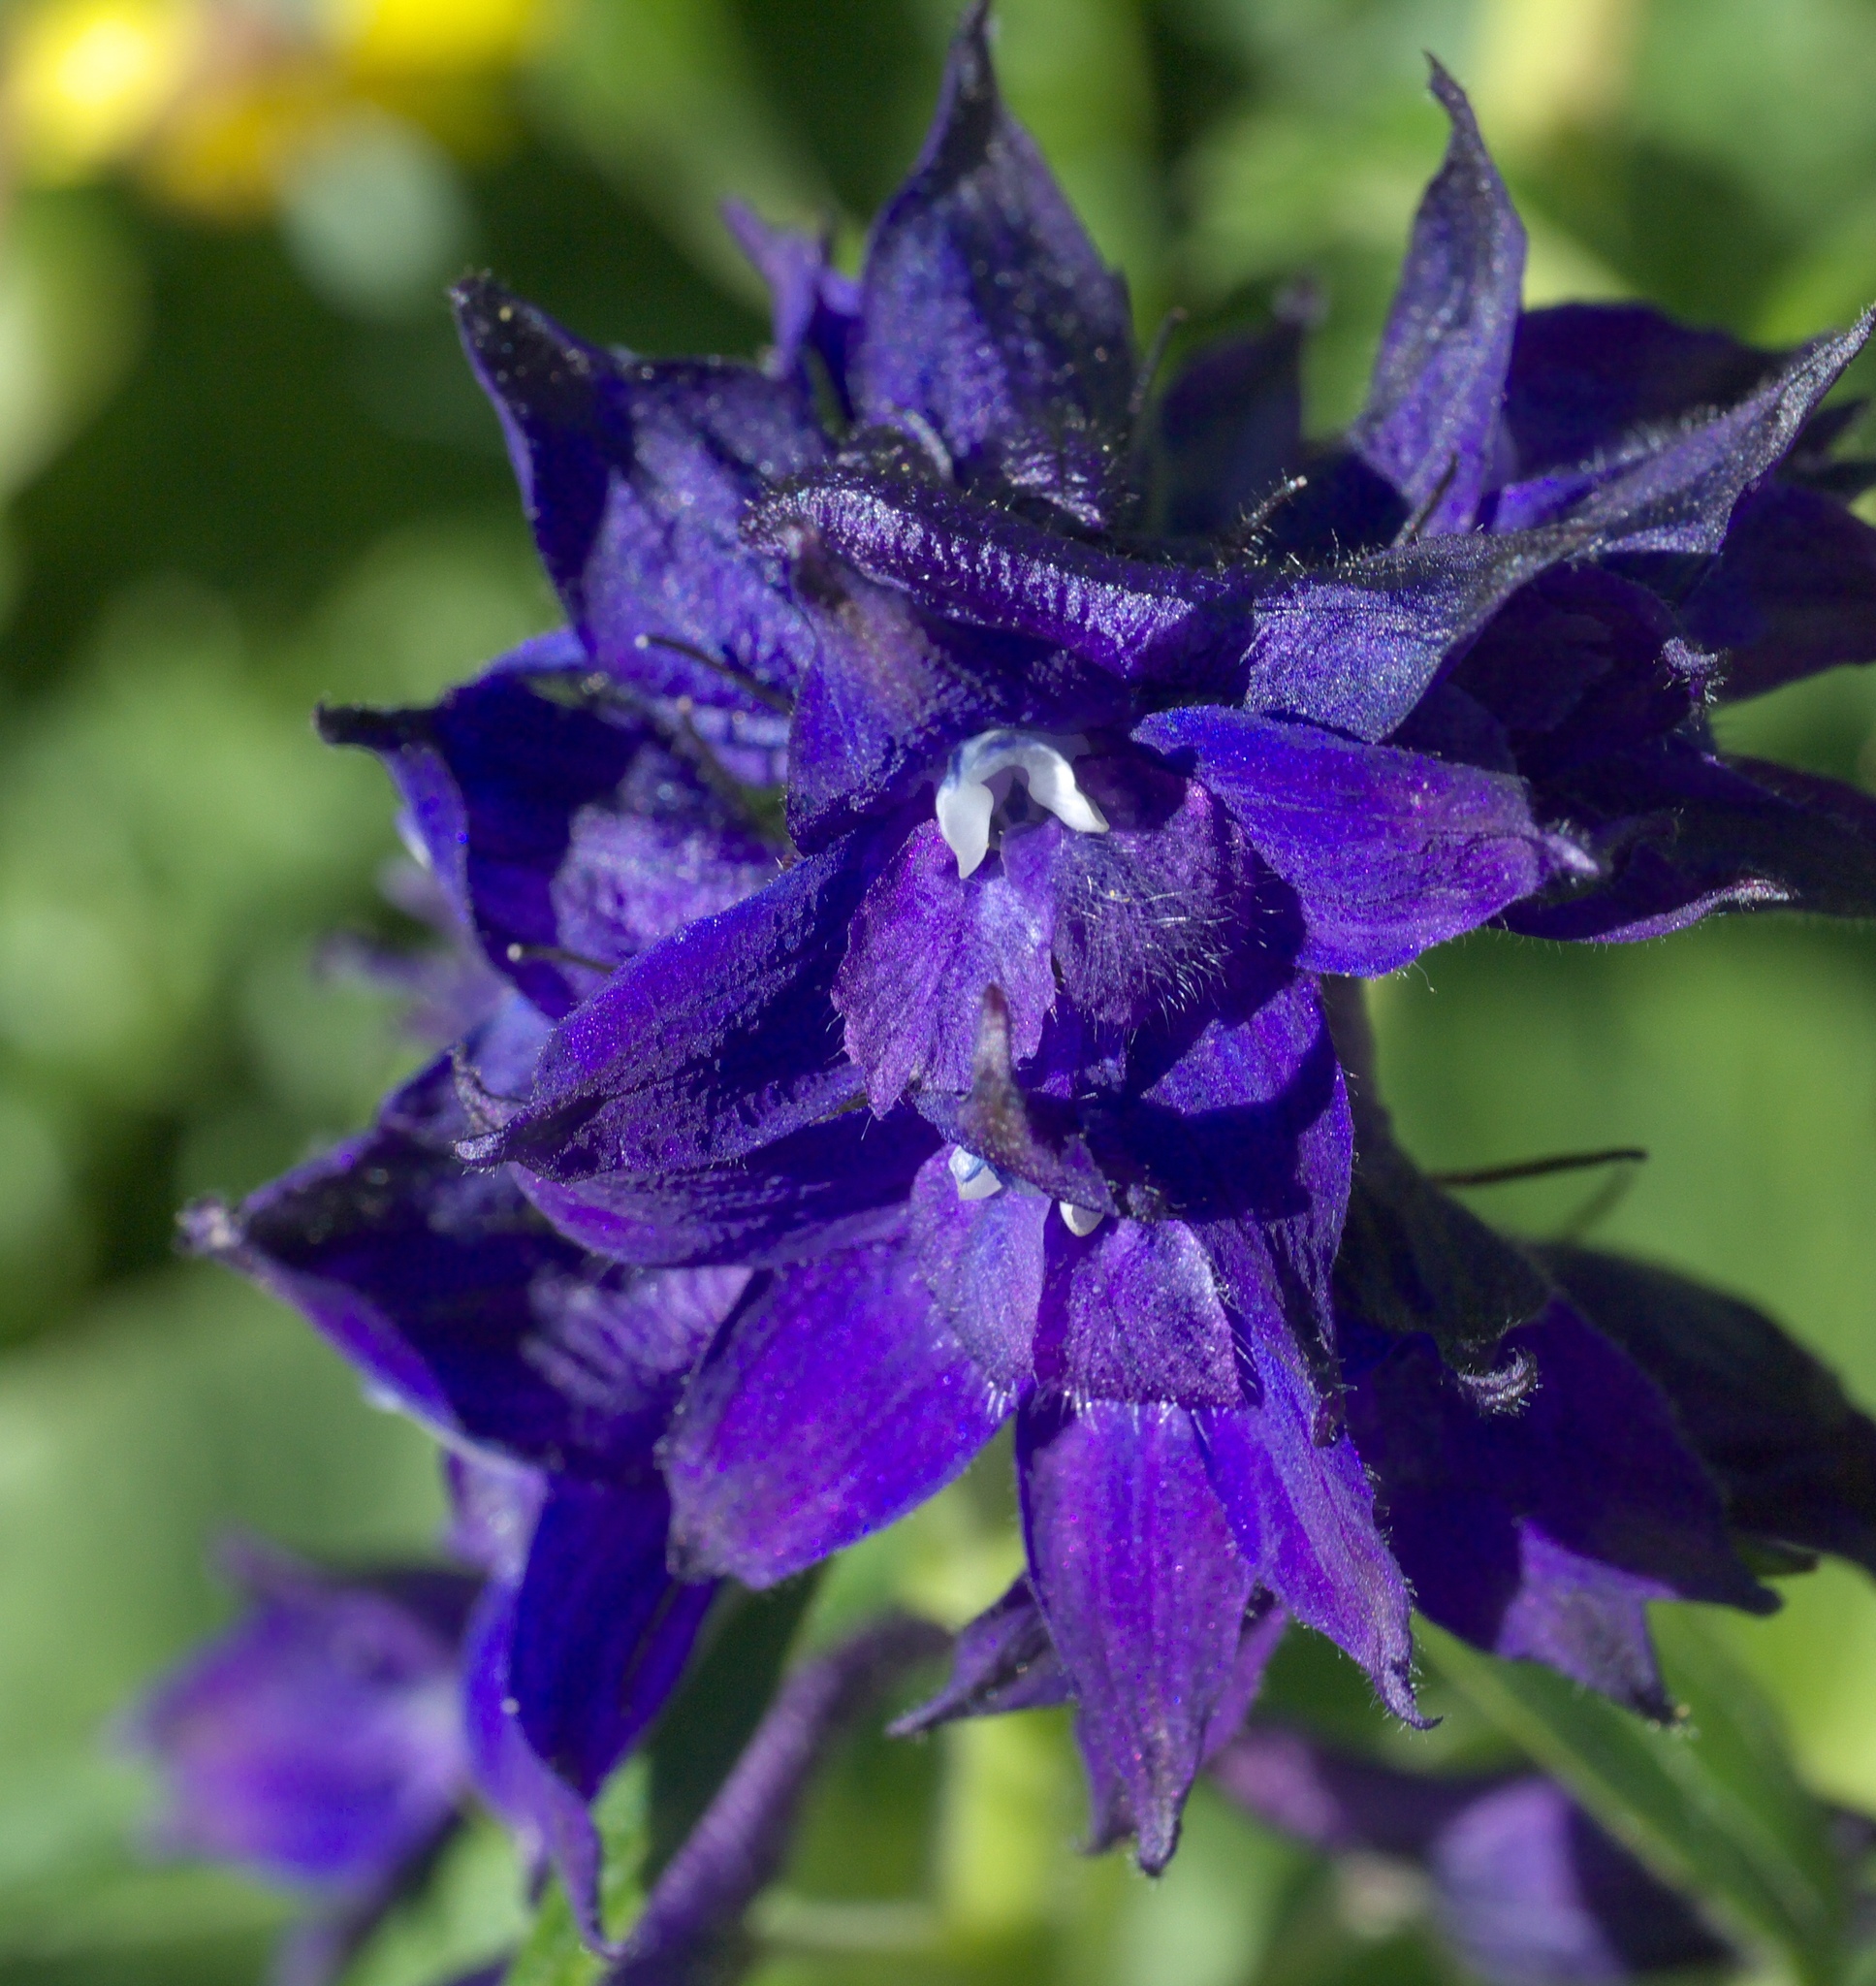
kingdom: Plantae
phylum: Tracheophyta
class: Magnoliopsida
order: Ranunculales
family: Ranunculaceae
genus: Delphinium
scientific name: Delphinium barbeyi
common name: Subalpine larkspur
